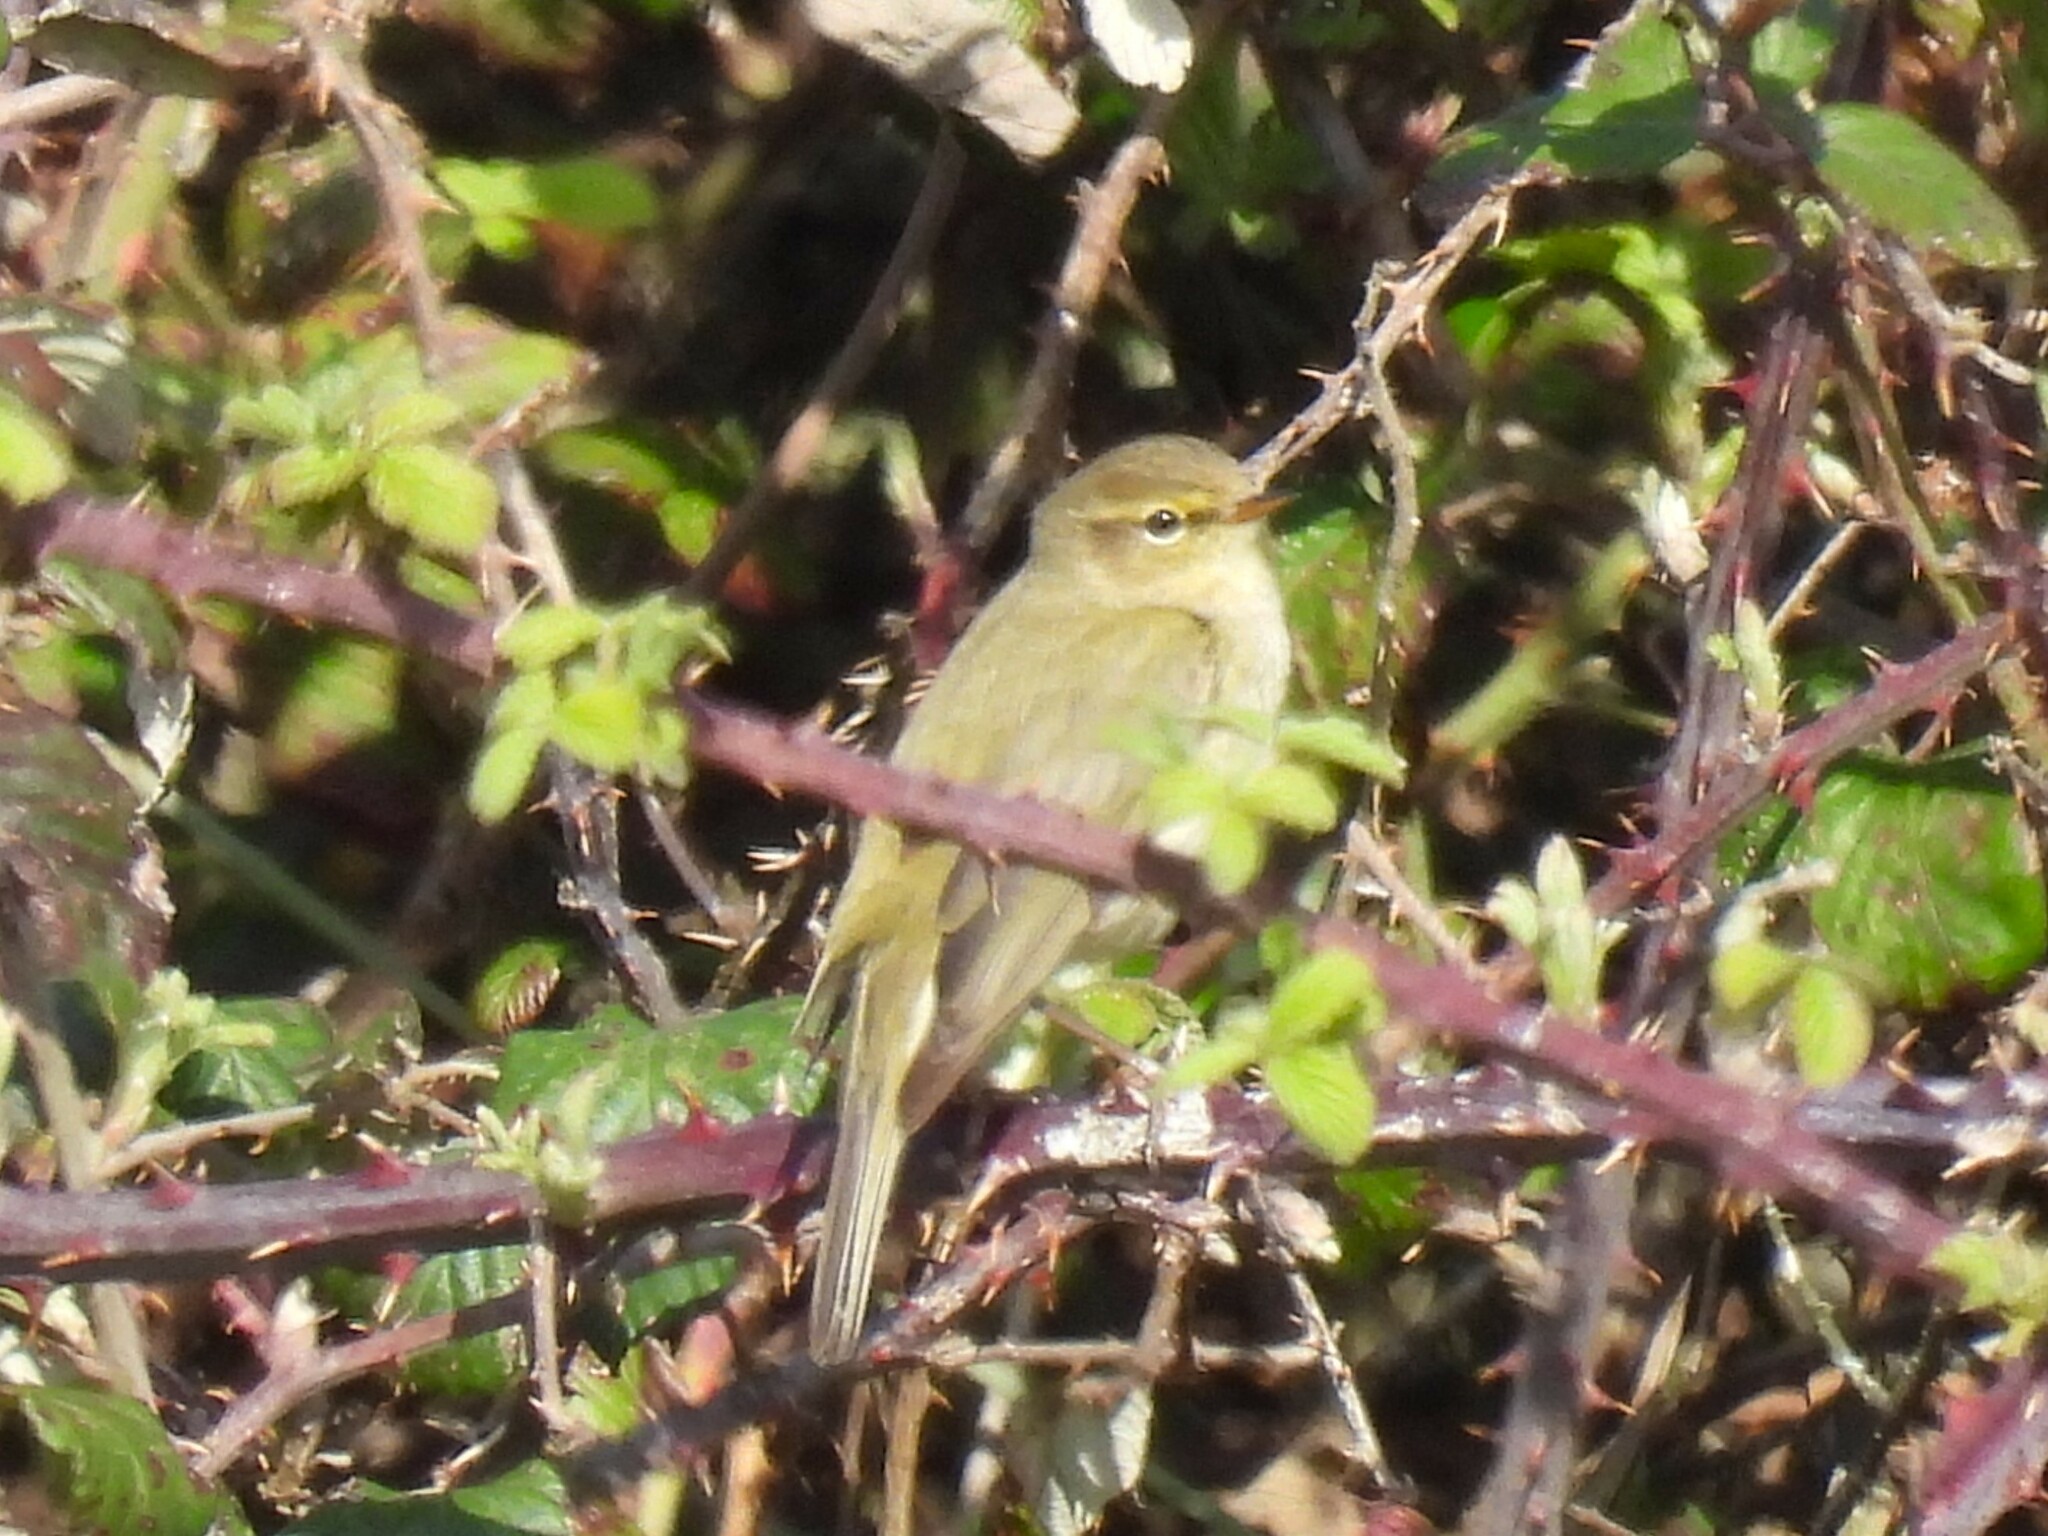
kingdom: Animalia
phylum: Chordata
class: Aves
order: Passeriformes
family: Phylloscopidae
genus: Phylloscopus
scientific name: Phylloscopus collybita
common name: Common chiffchaff
